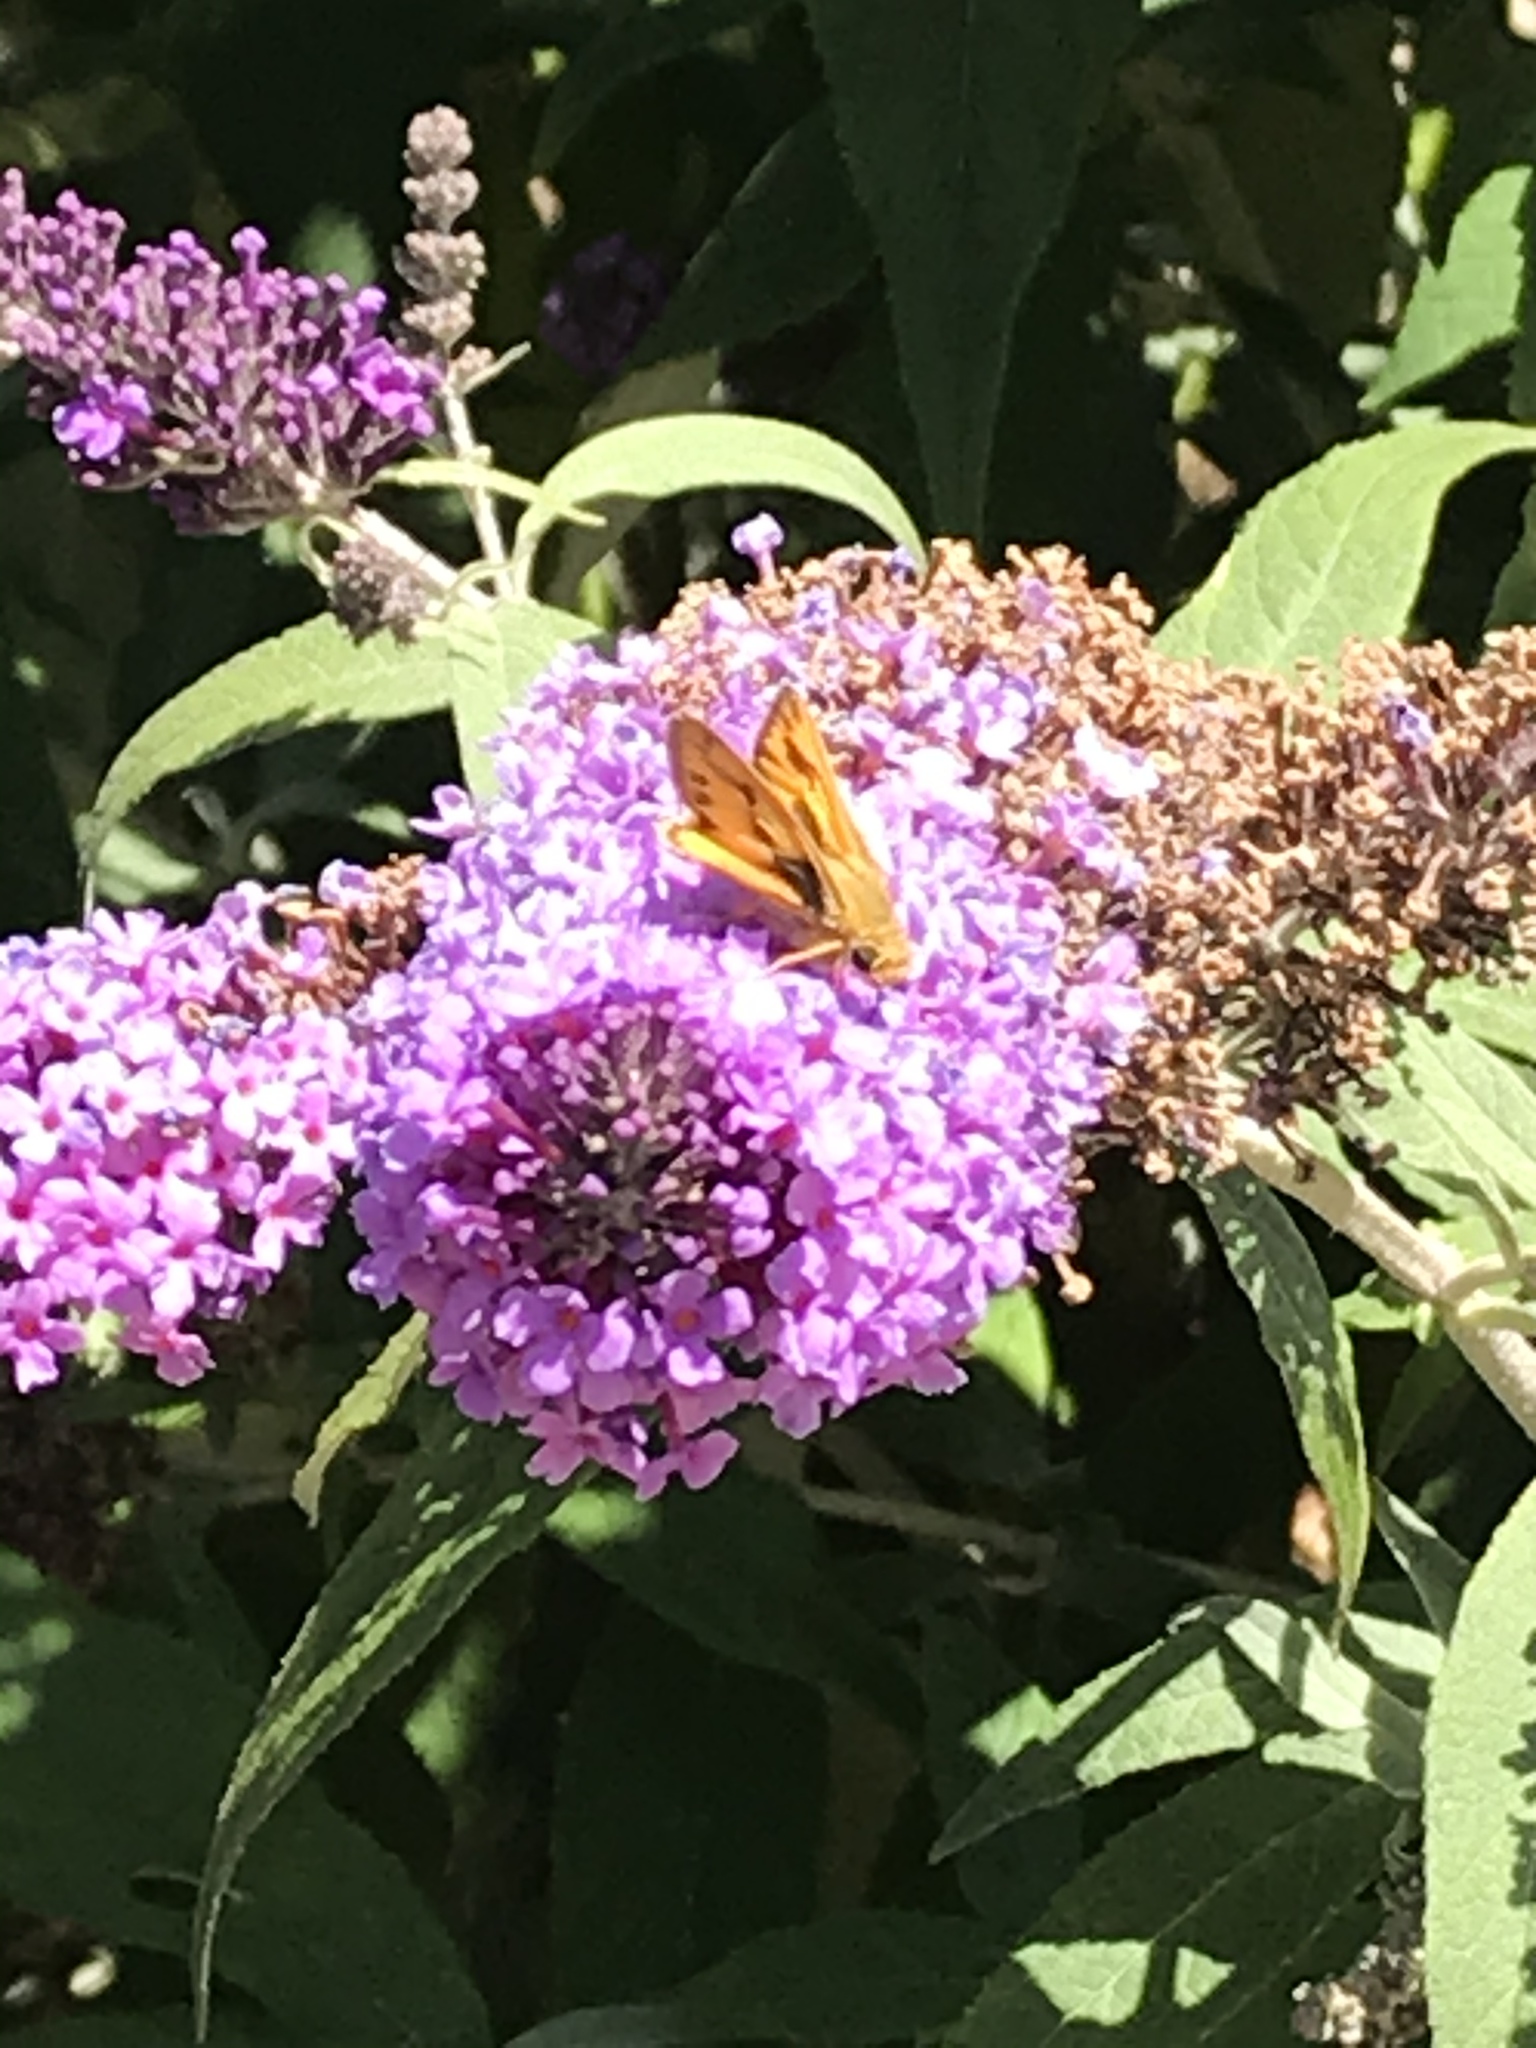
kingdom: Animalia
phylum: Arthropoda
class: Insecta
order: Lepidoptera
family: Hesperiidae
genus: Hylephila
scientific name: Hylephila phyleus
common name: Fiery skipper
